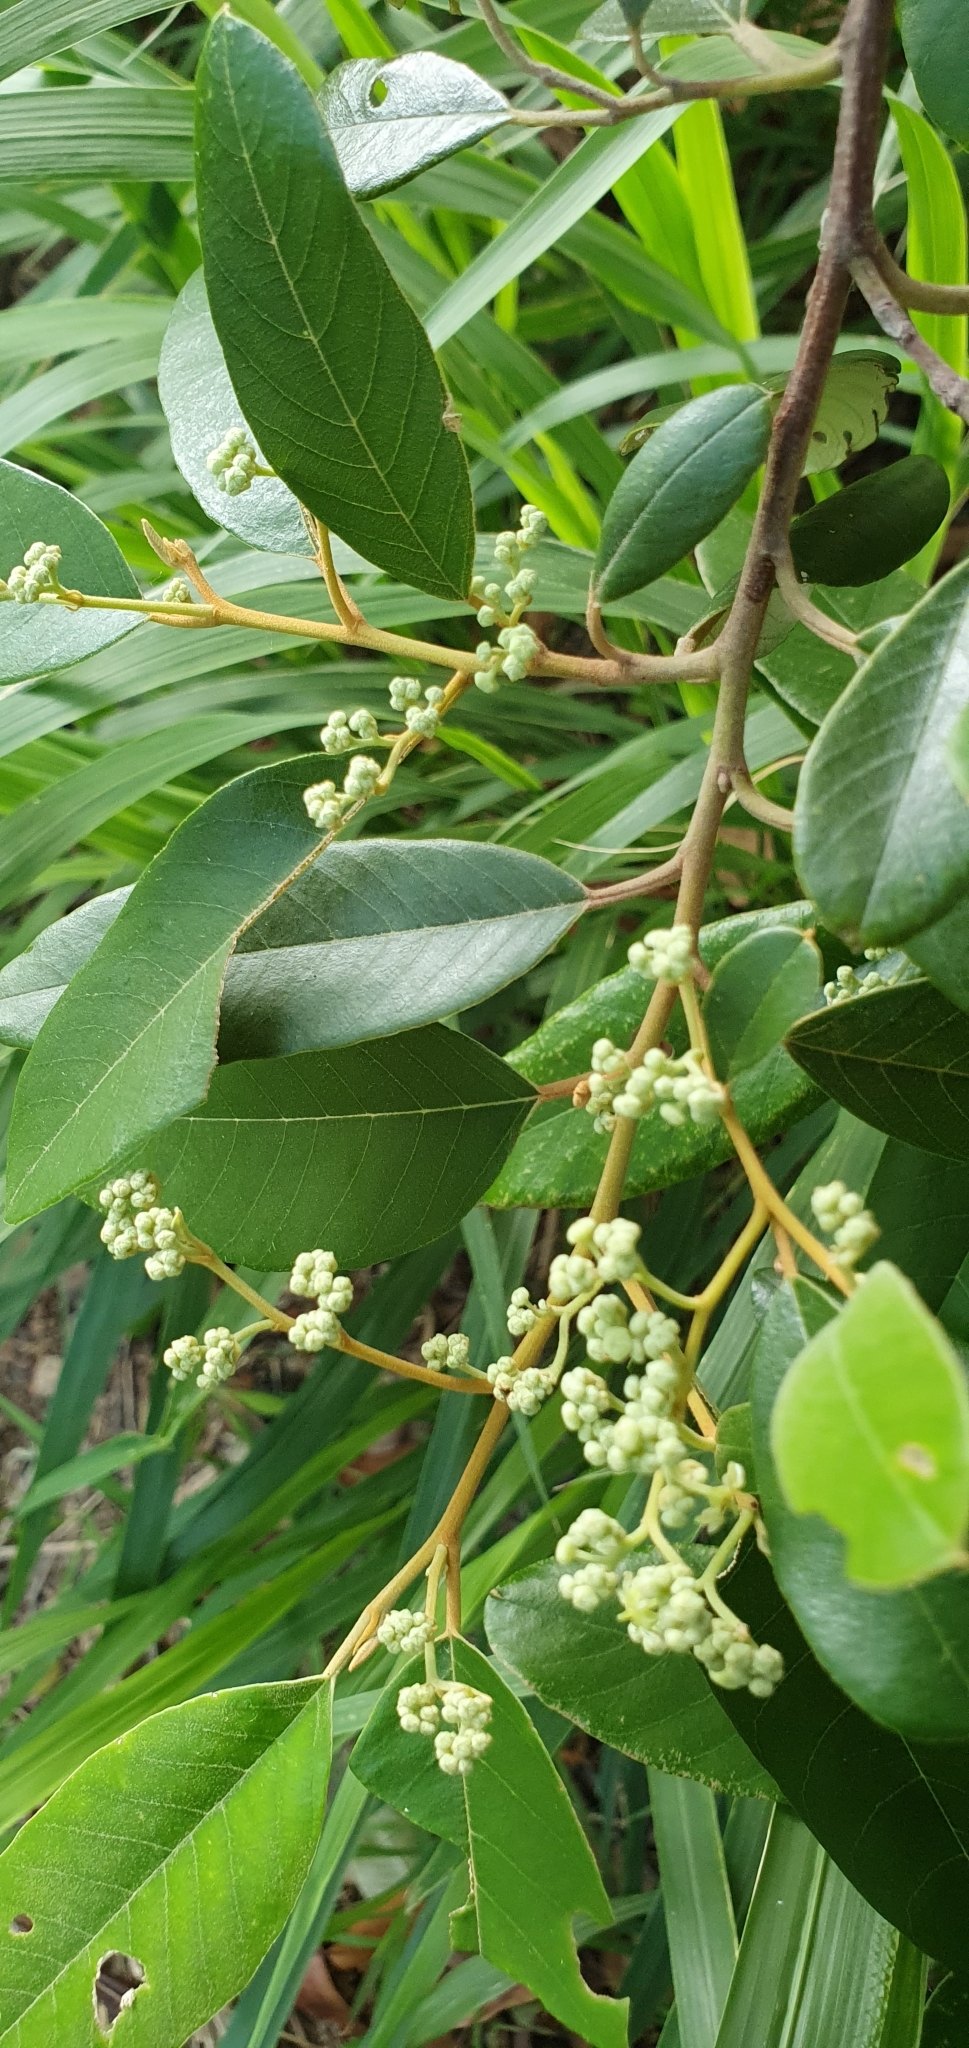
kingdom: Plantae
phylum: Tracheophyta
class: Magnoliopsida
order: Rosales
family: Rhamnaceae
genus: Alphitonia
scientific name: Alphitonia excelsa
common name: Red ash
